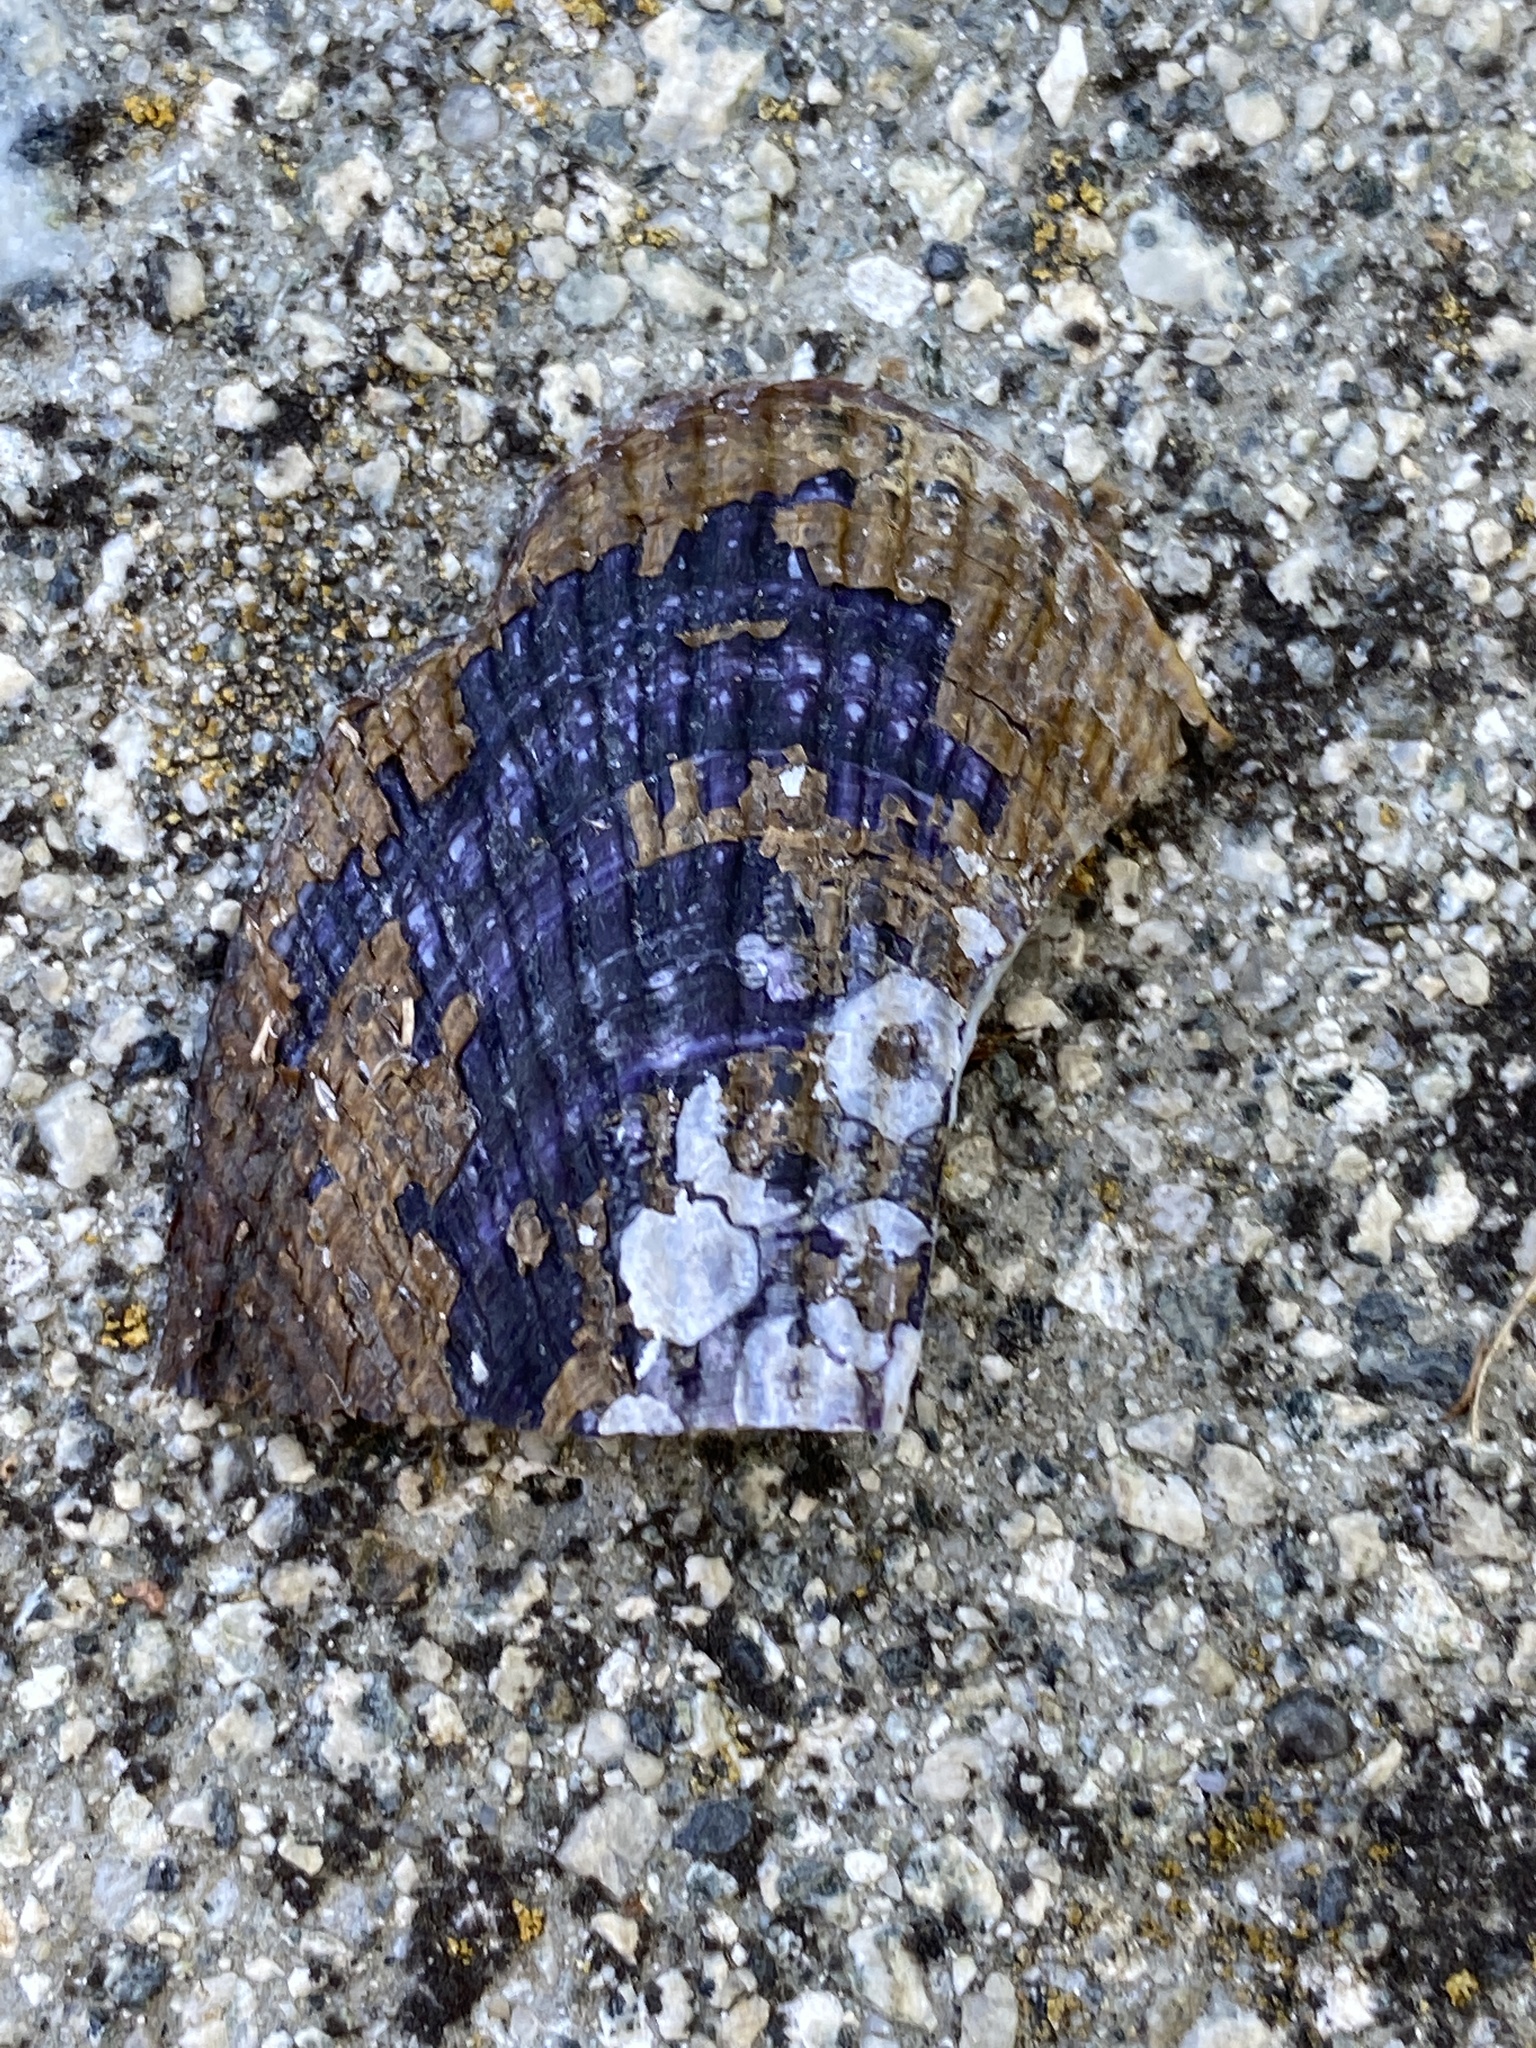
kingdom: Animalia
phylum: Mollusca
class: Bivalvia
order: Mytilida
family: Mytilidae
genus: Geukensia
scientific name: Geukensia demissa
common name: Ribbed mussel
